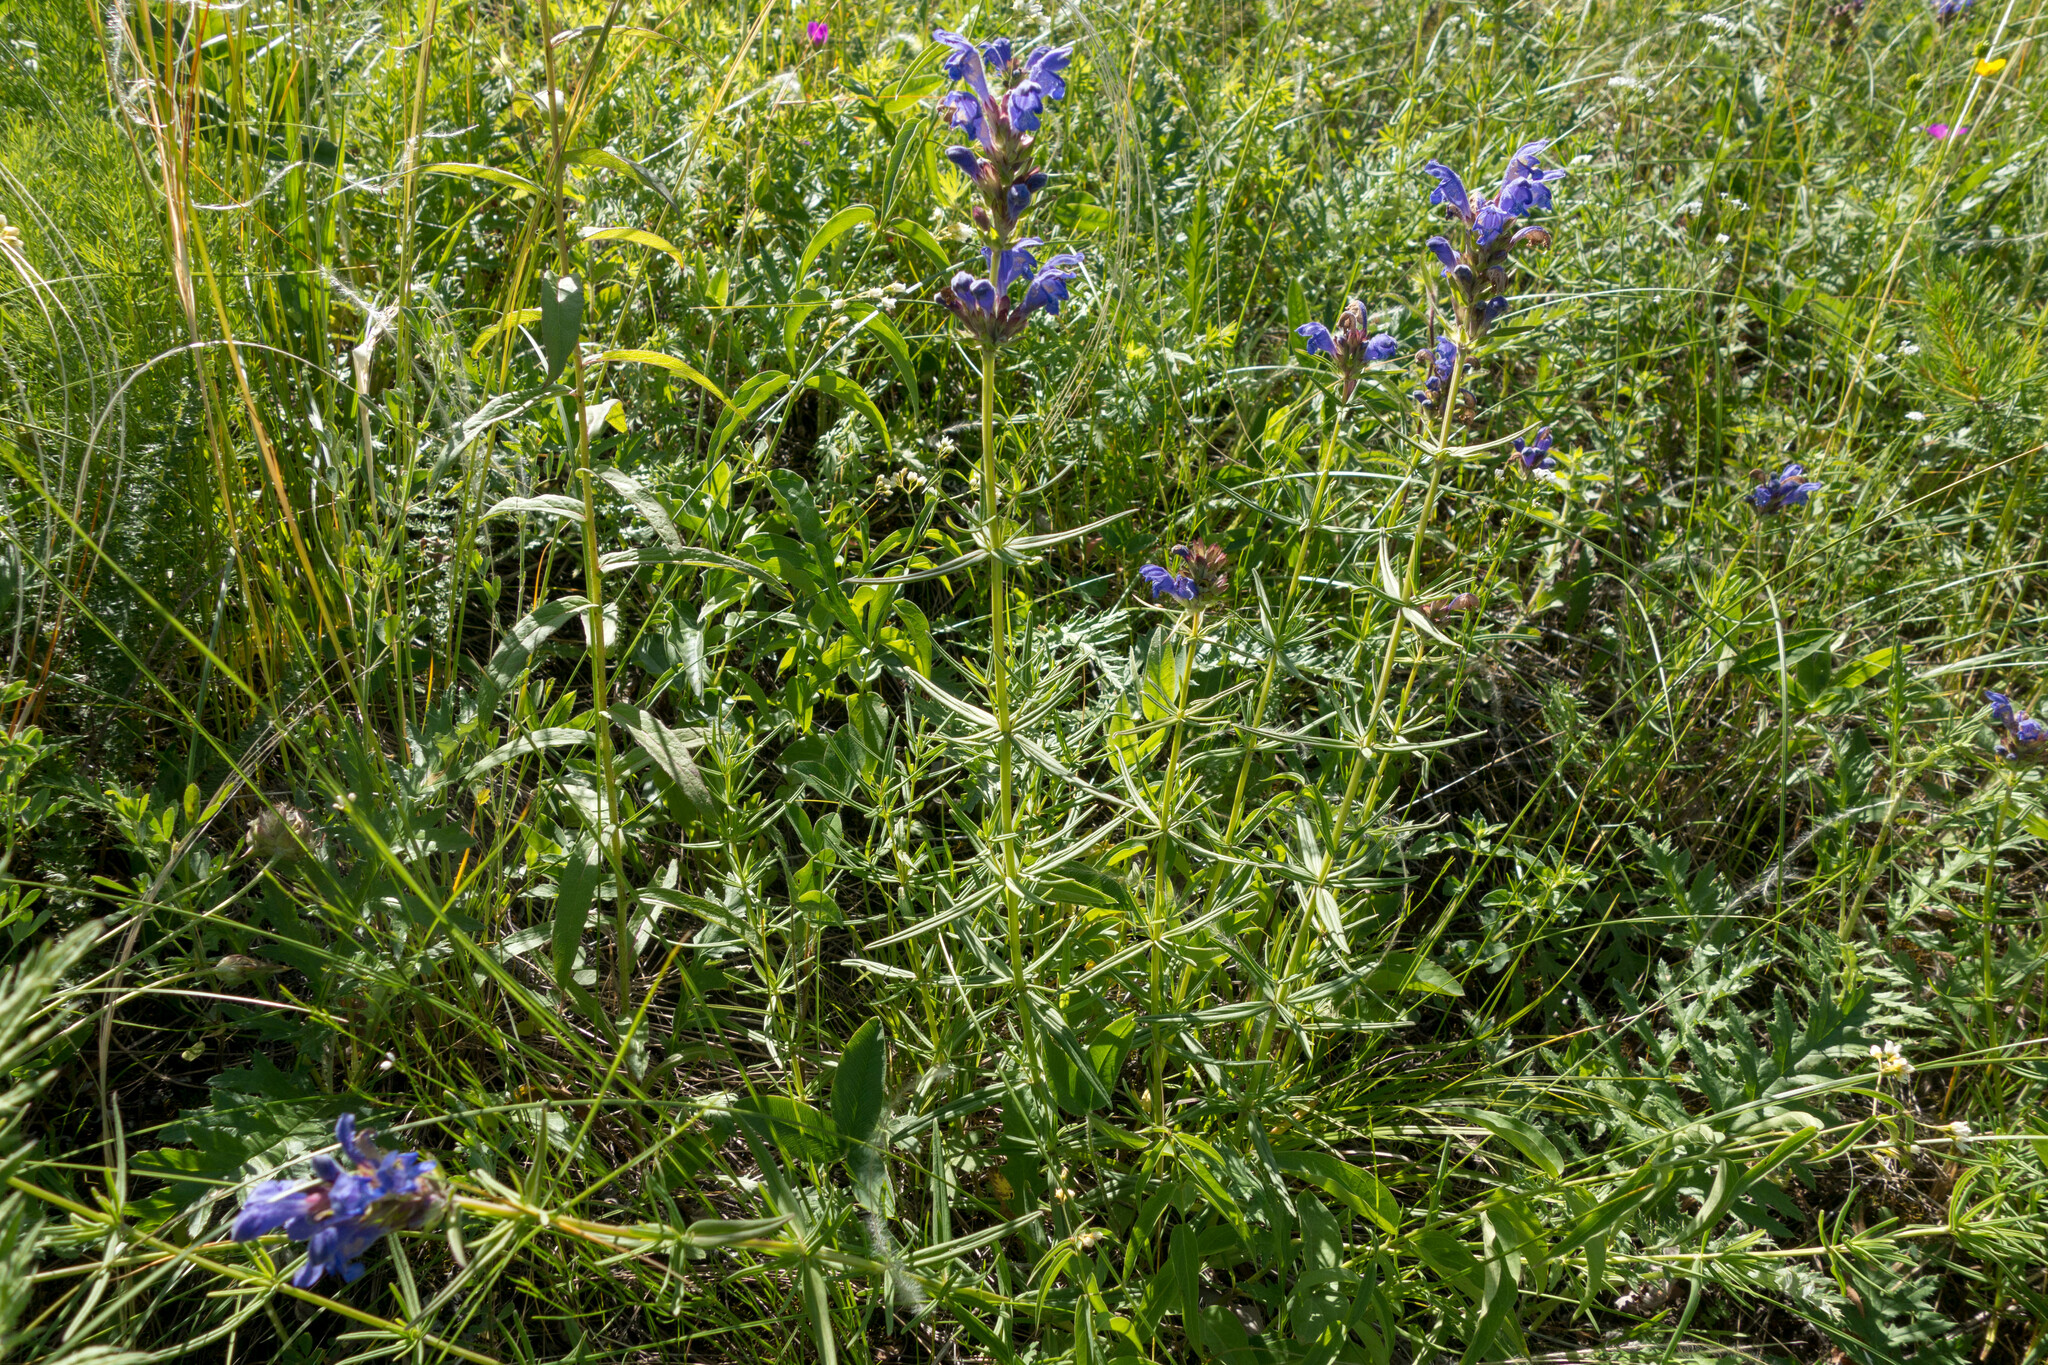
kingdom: Plantae
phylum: Tracheophyta
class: Magnoliopsida
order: Lamiales
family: Lamiaceae
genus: Dracocephalum
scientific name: Dracocephalum ruyschiana
